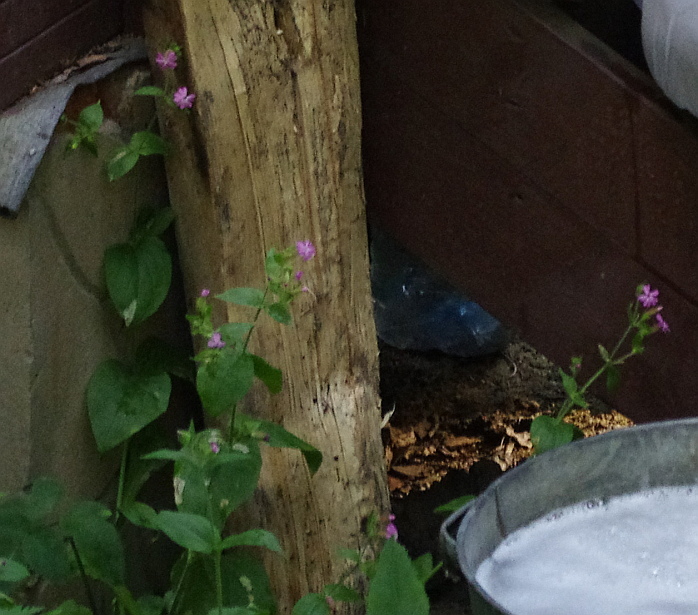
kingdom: Plantae
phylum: Tracheophyta
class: Magnoliopsida
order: Caryophyllales
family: Caryophyllaceae
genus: Silene
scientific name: Silene dioica
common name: Red campion
